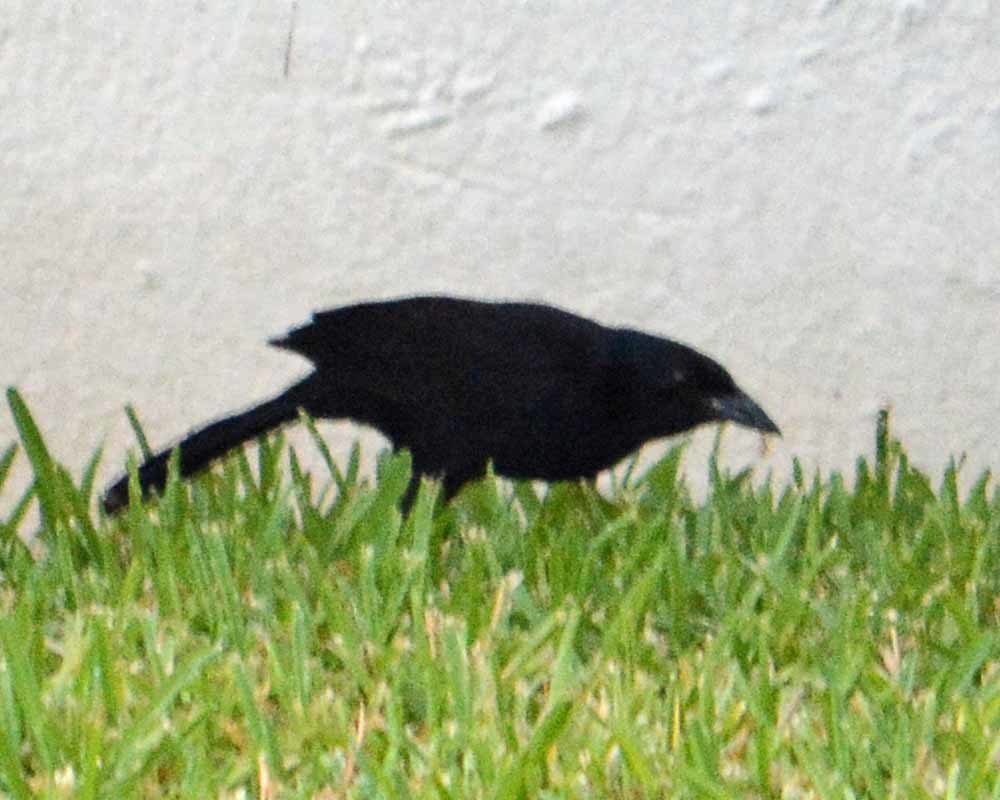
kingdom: Animalia
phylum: Chordata
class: Aves
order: Passeriformes
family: Icteridae
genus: Dives
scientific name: Dives dives
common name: Melodious blackbird
